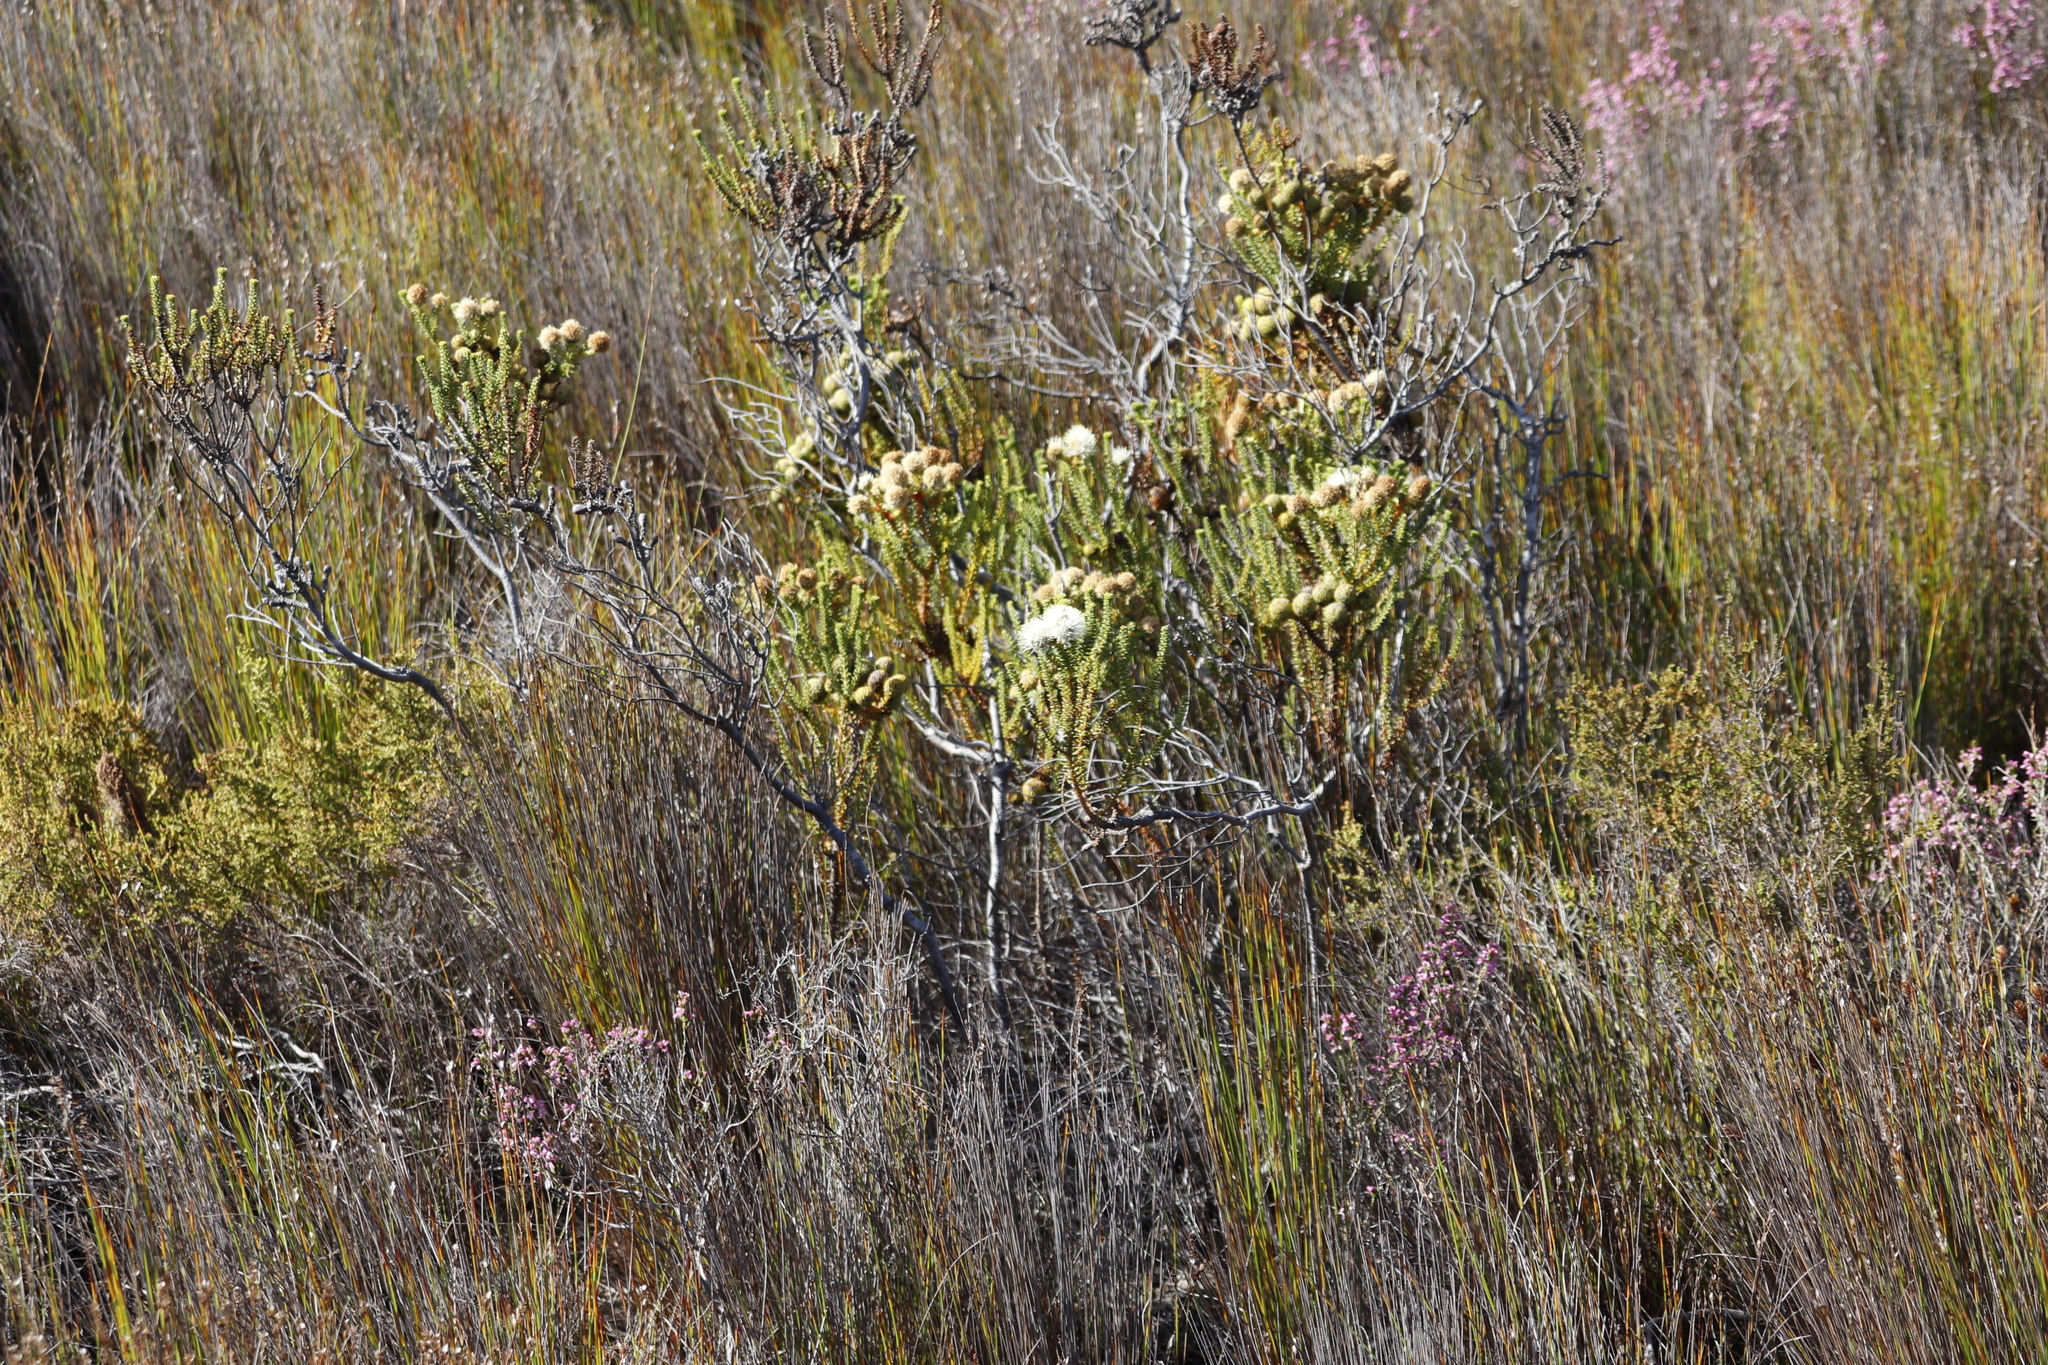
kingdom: Plantae
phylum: Tracheophyta
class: Magnoliopsida
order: Bruniales
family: Bruniaceae
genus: Berzelia
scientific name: Berzelia abrotanoides
